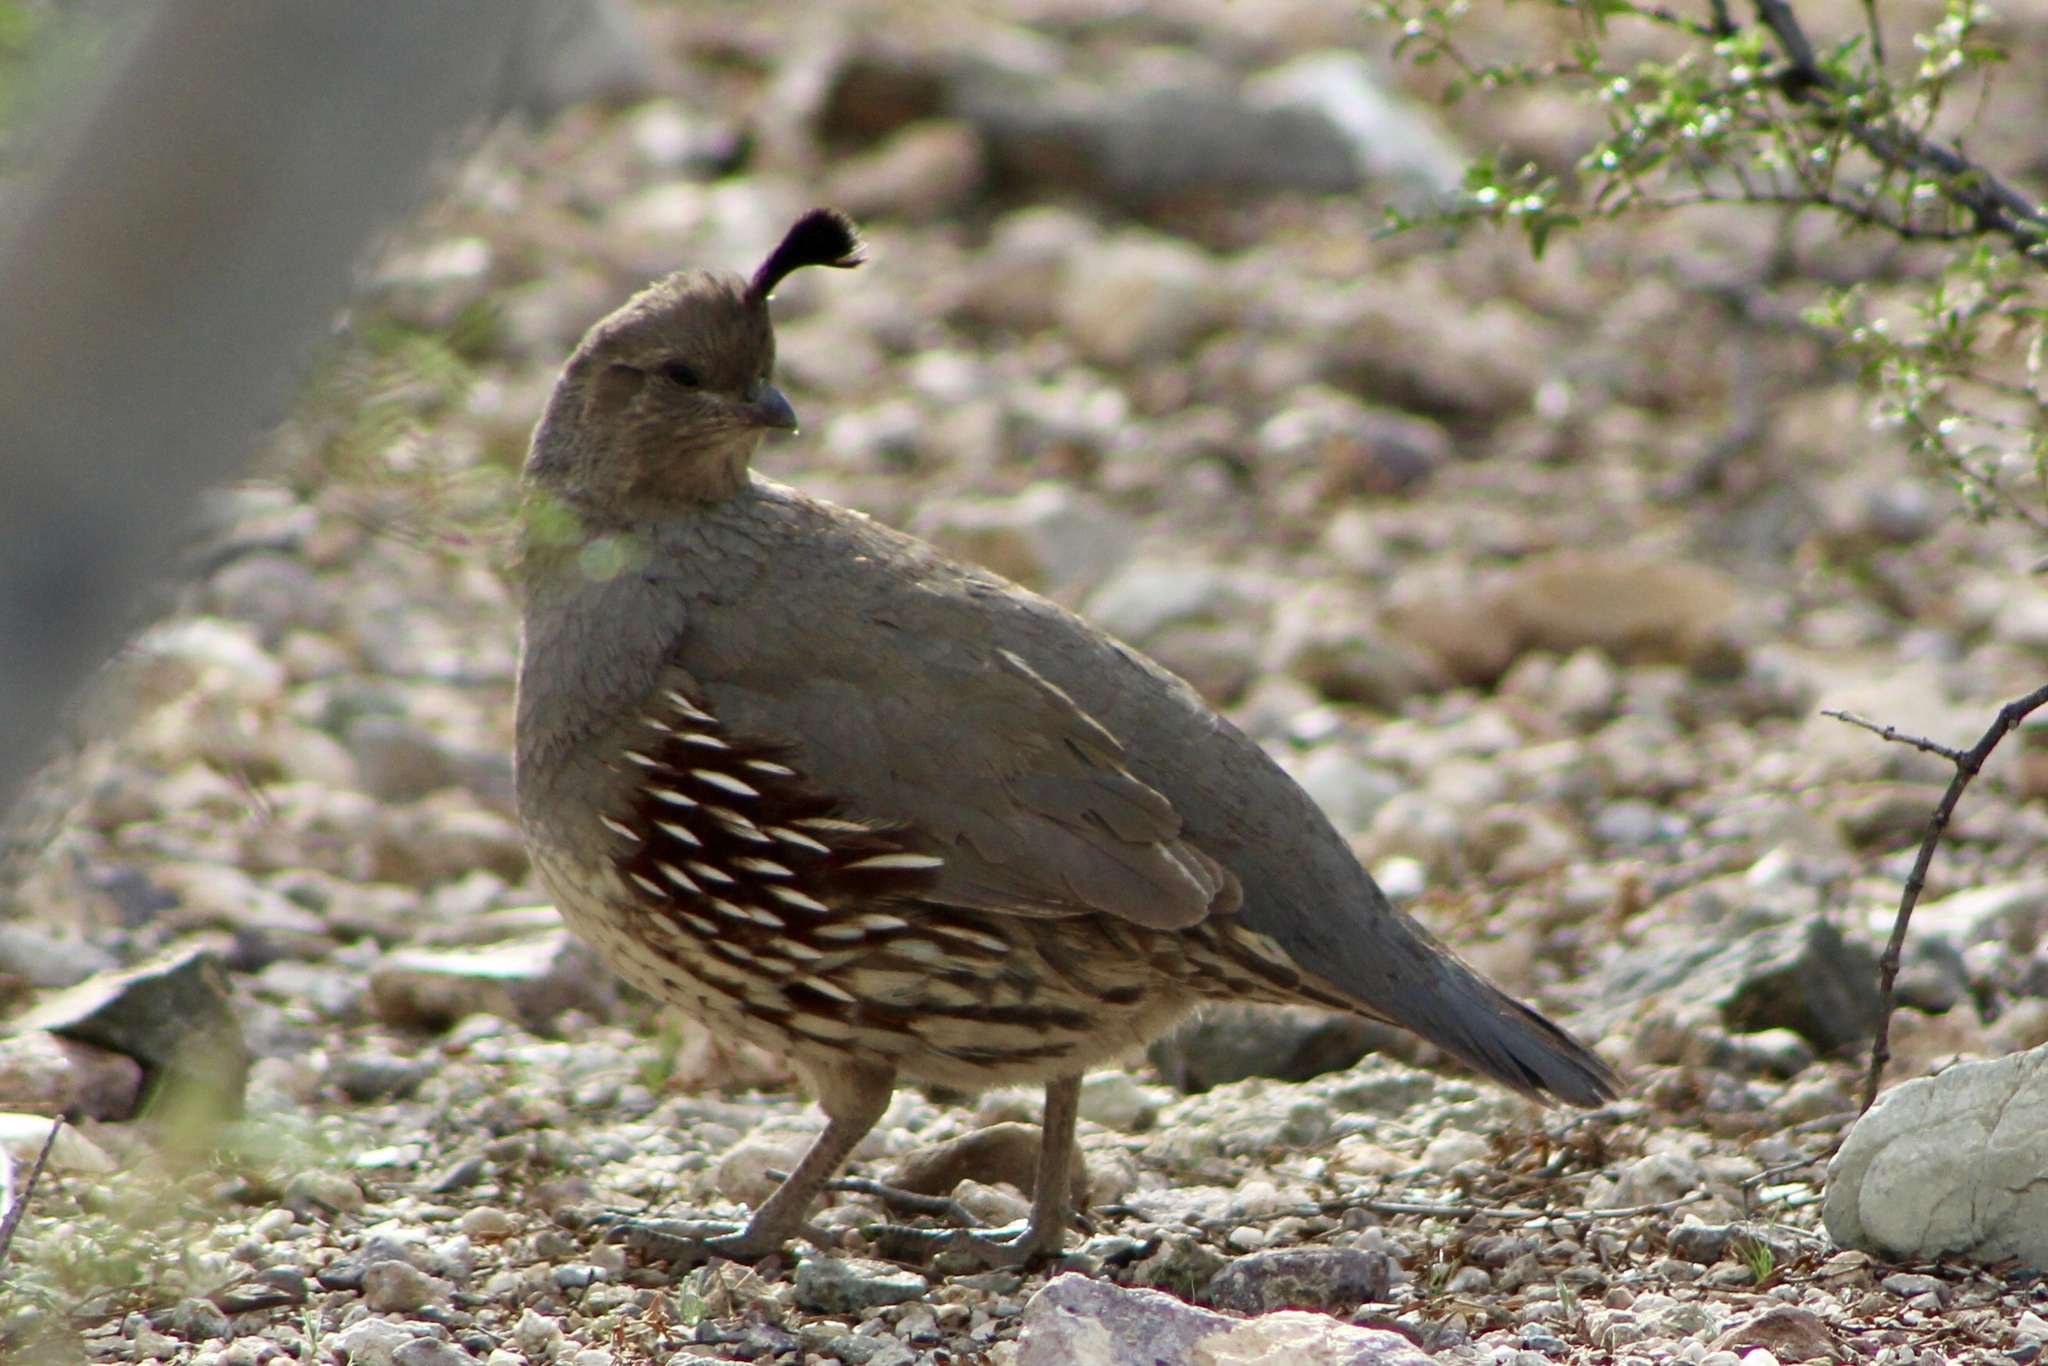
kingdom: Animalia
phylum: Chordata
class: Aves
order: Galliformes
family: Odontophoridae
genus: Callipepla
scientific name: Callipepla gambelii
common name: Gambel's quail
